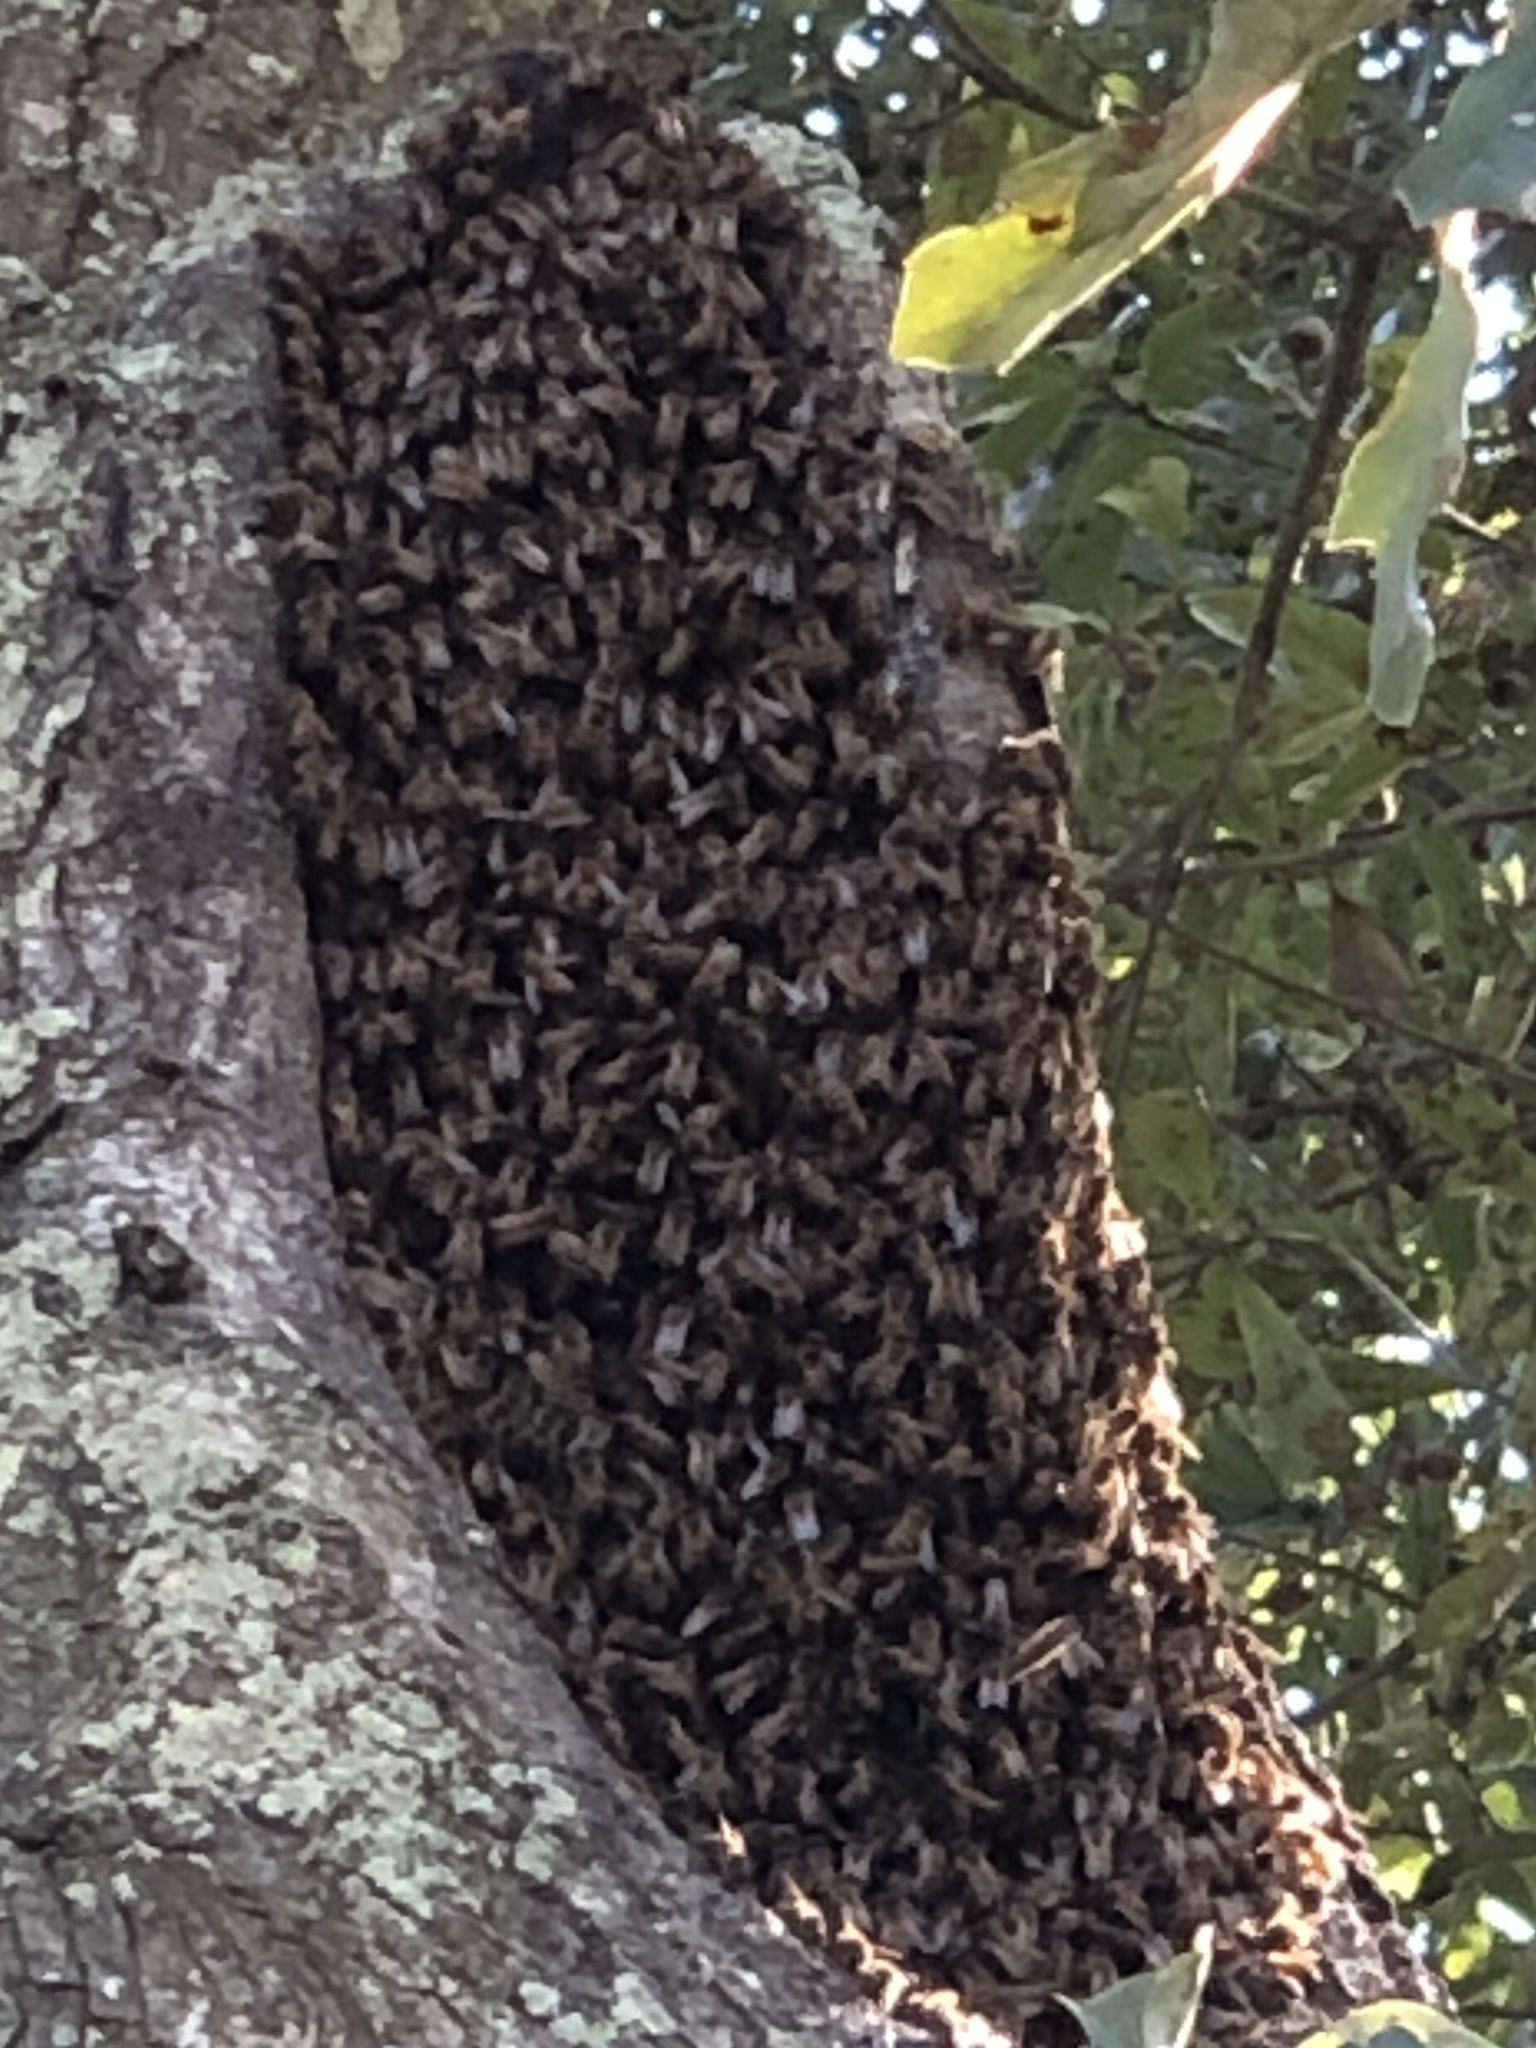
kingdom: Animalia
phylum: Arthropoda
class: Insecta
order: Hymenoptera
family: Apidae
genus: Apis
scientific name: Apis mellifera
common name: Honey bee
